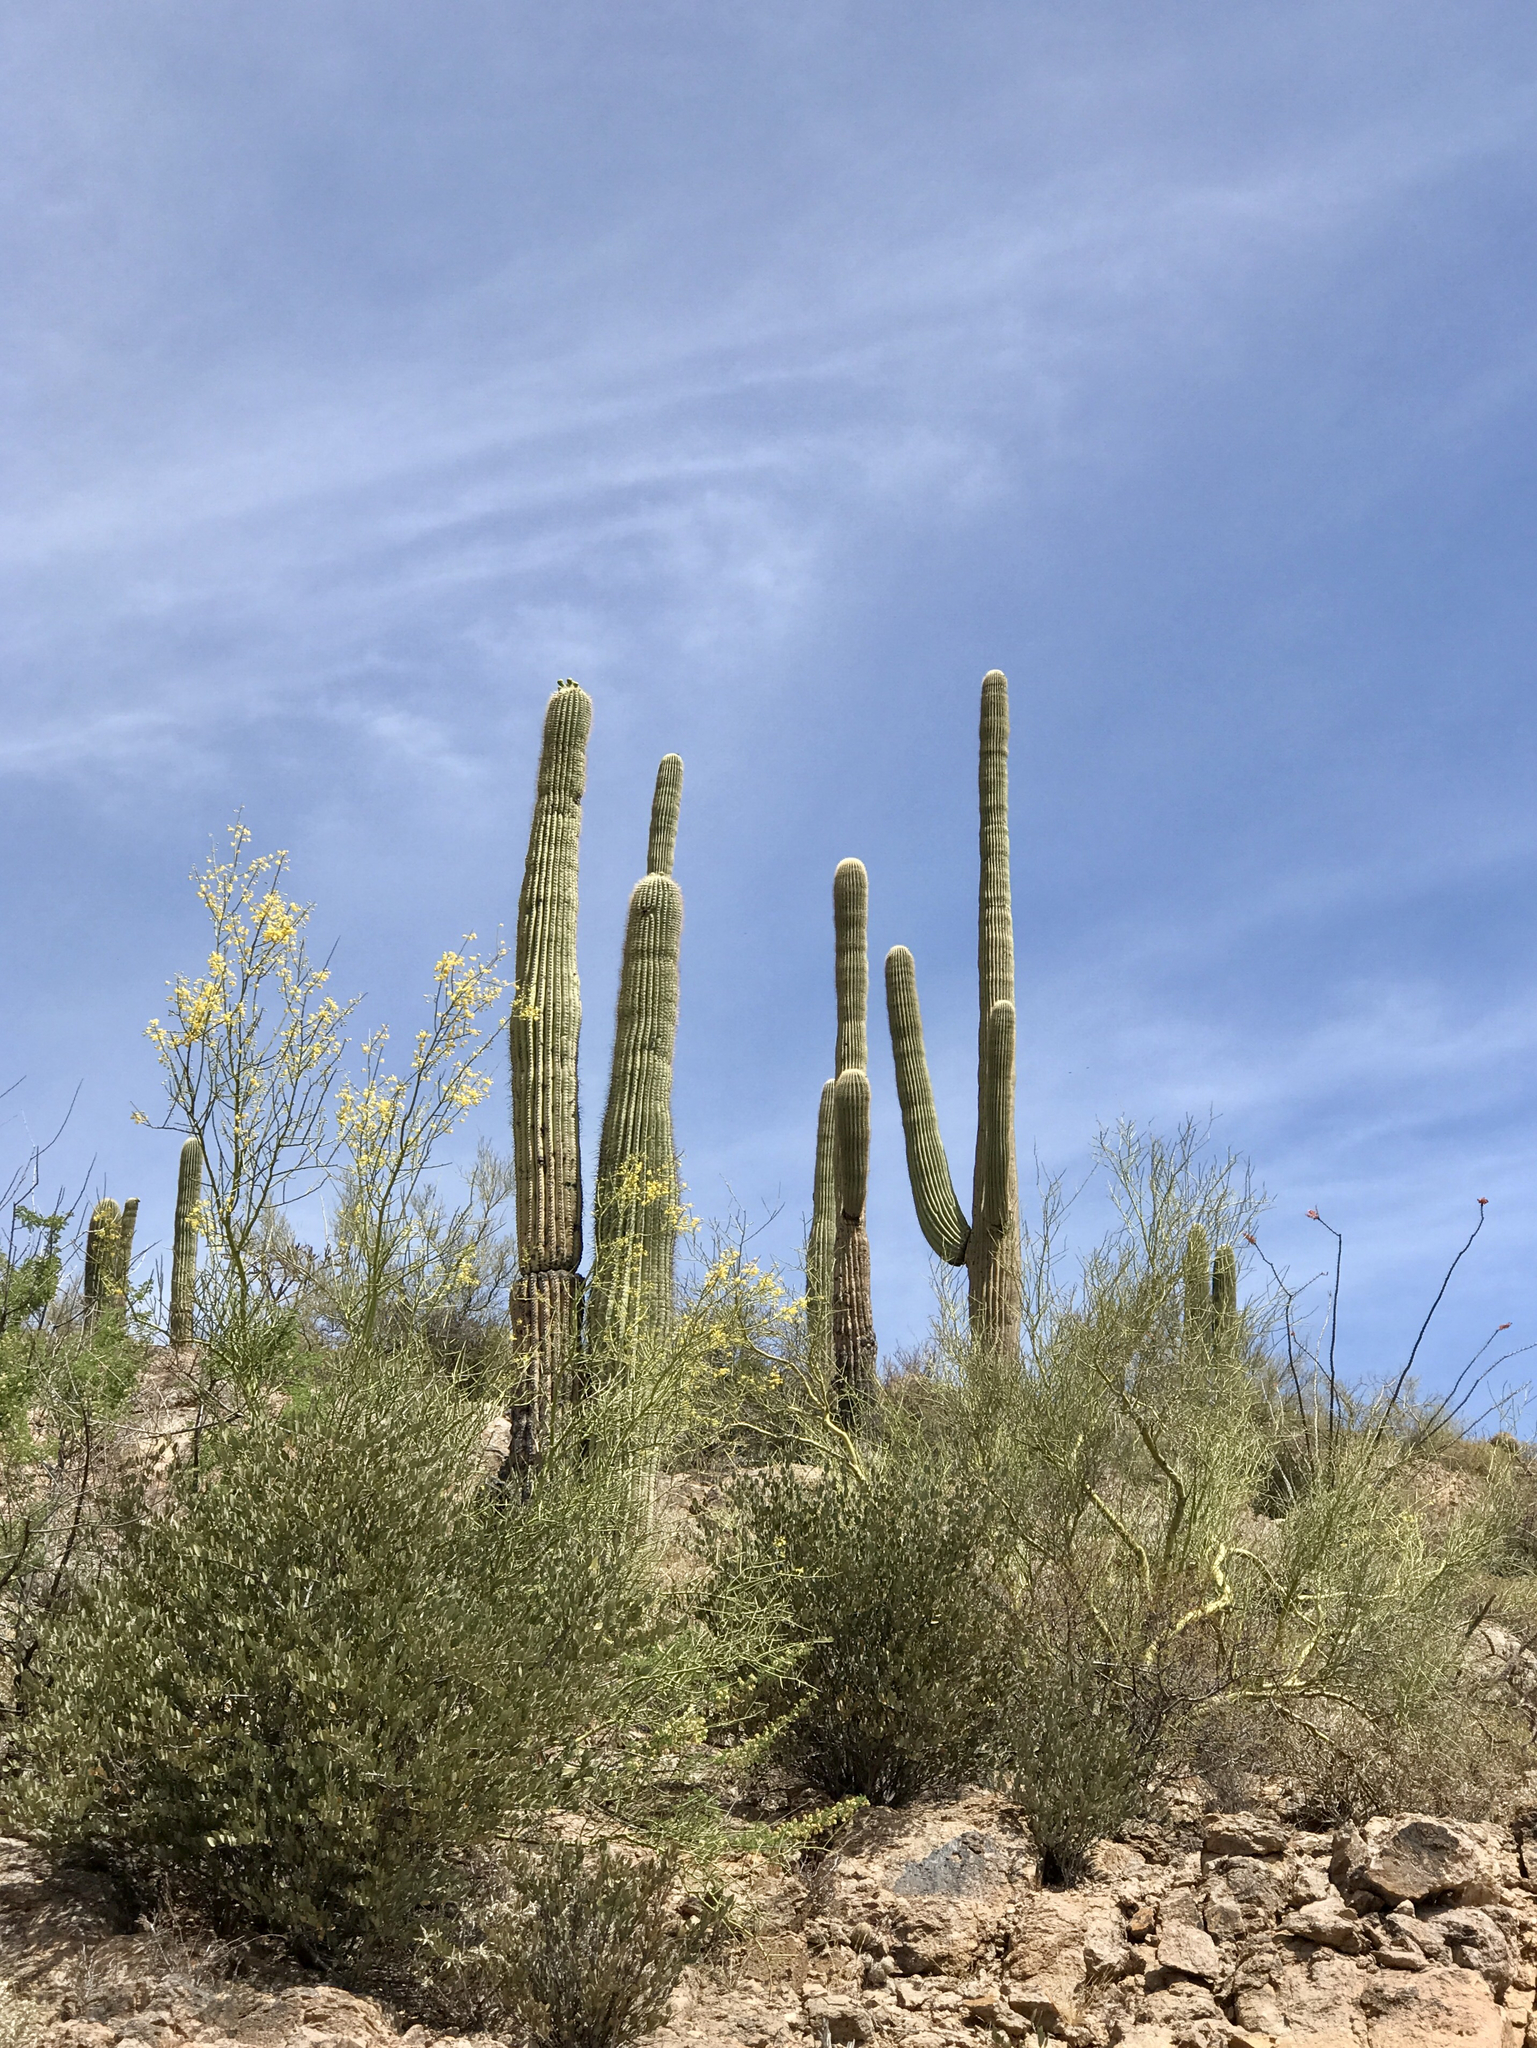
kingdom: Plantae
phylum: Tracheophyta
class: Magnoliopsida
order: Caryophyllales
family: Cactaceae
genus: Carnegiea
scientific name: Carnegiea gigantea
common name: Saguaro
